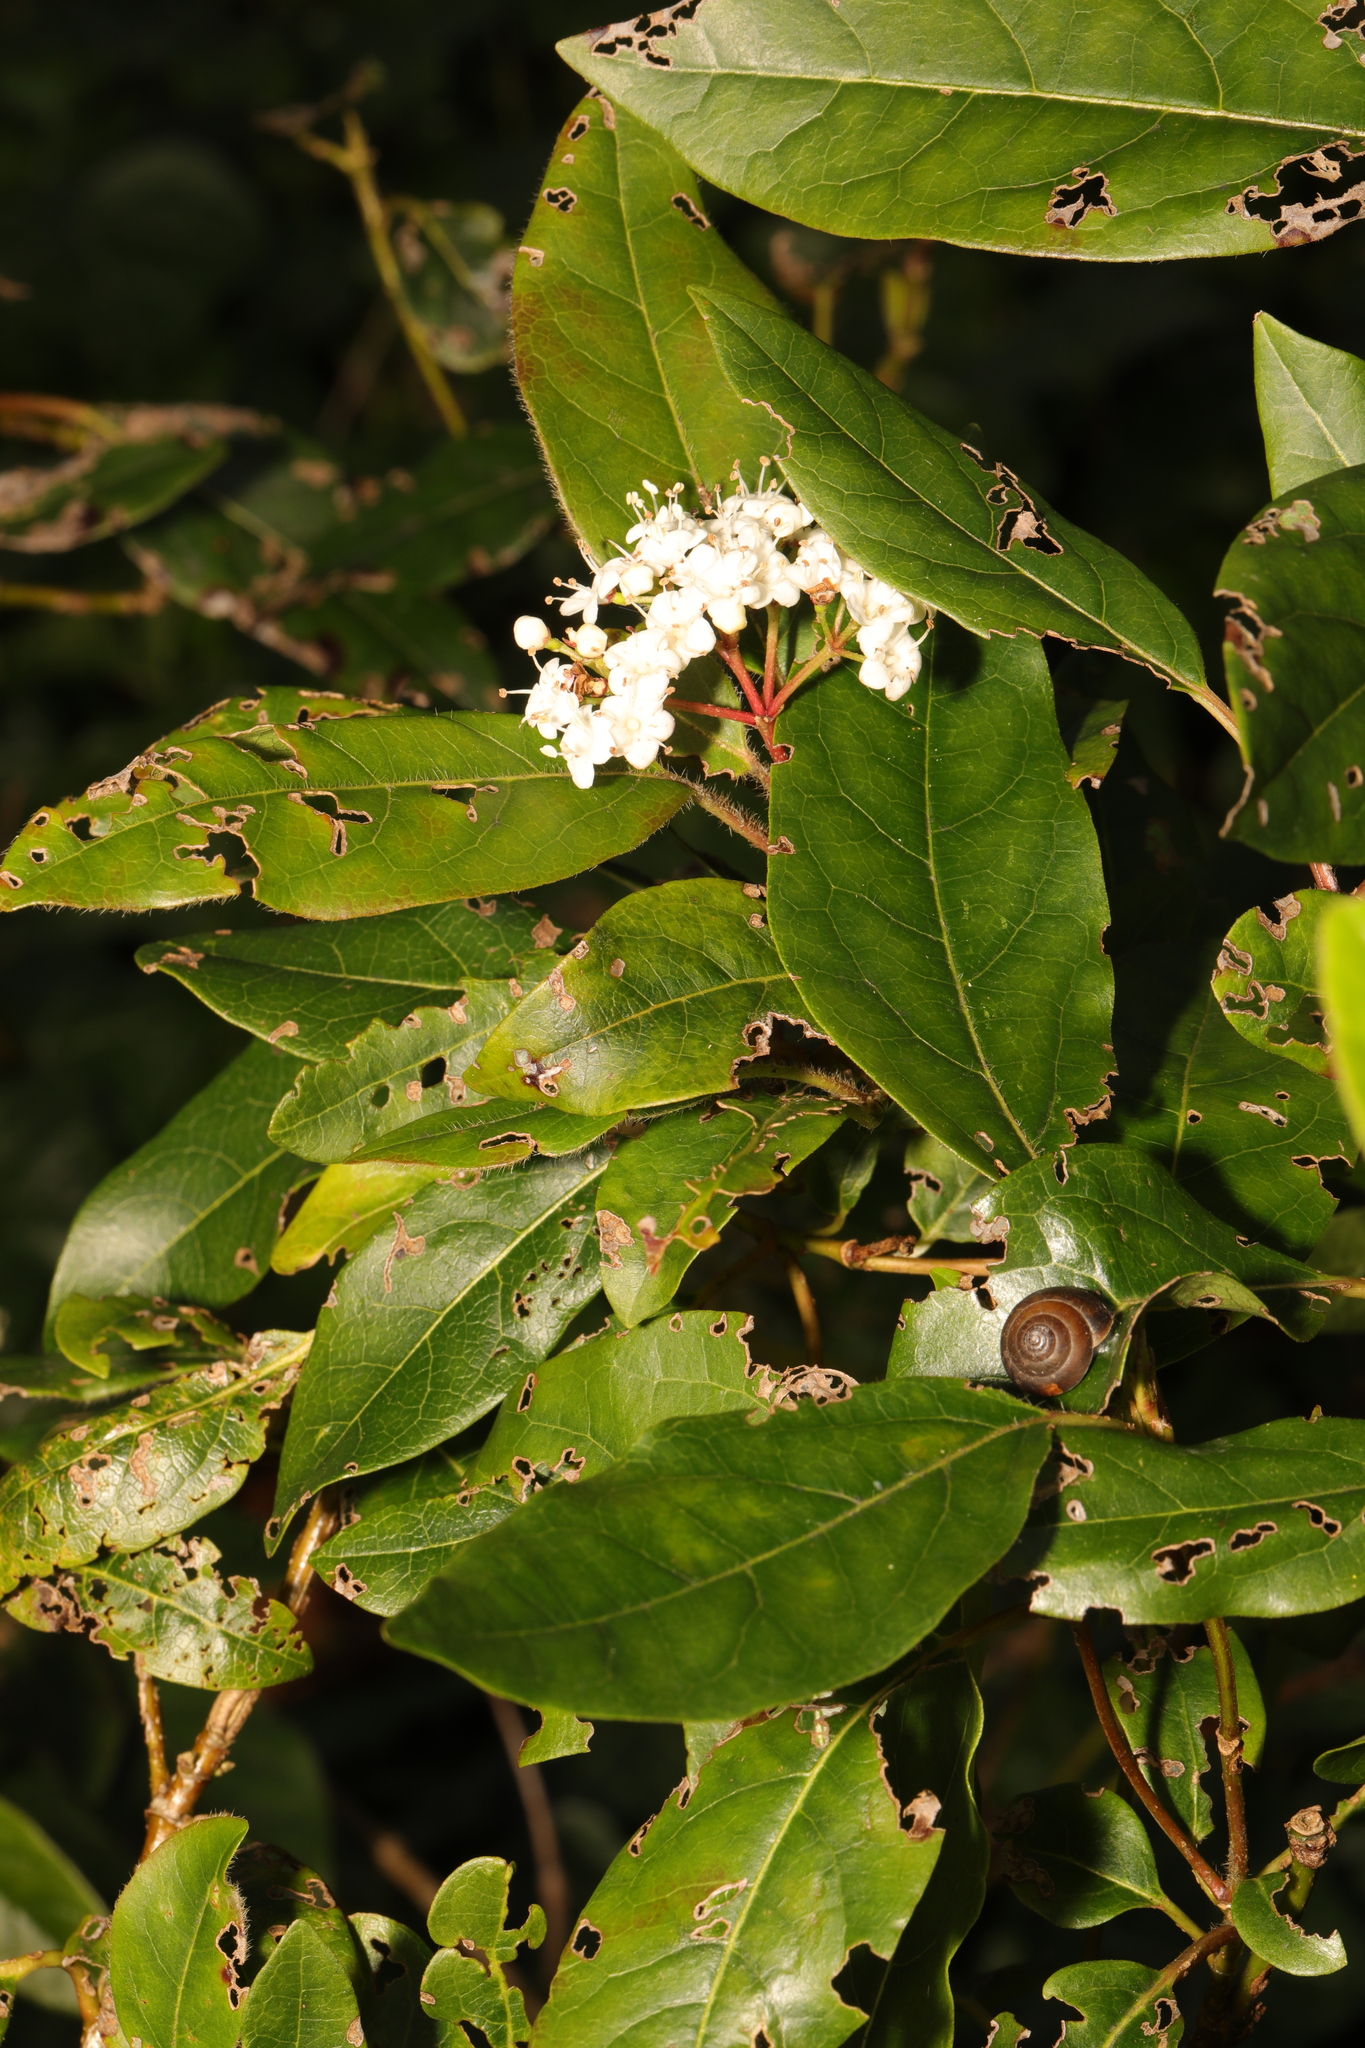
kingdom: Plantae
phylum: Tracheophyta
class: Magnoliopsida
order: Dipsacales
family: Viburnaceae
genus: Viburnum
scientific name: Viburnum tinus
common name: Laurustinus
